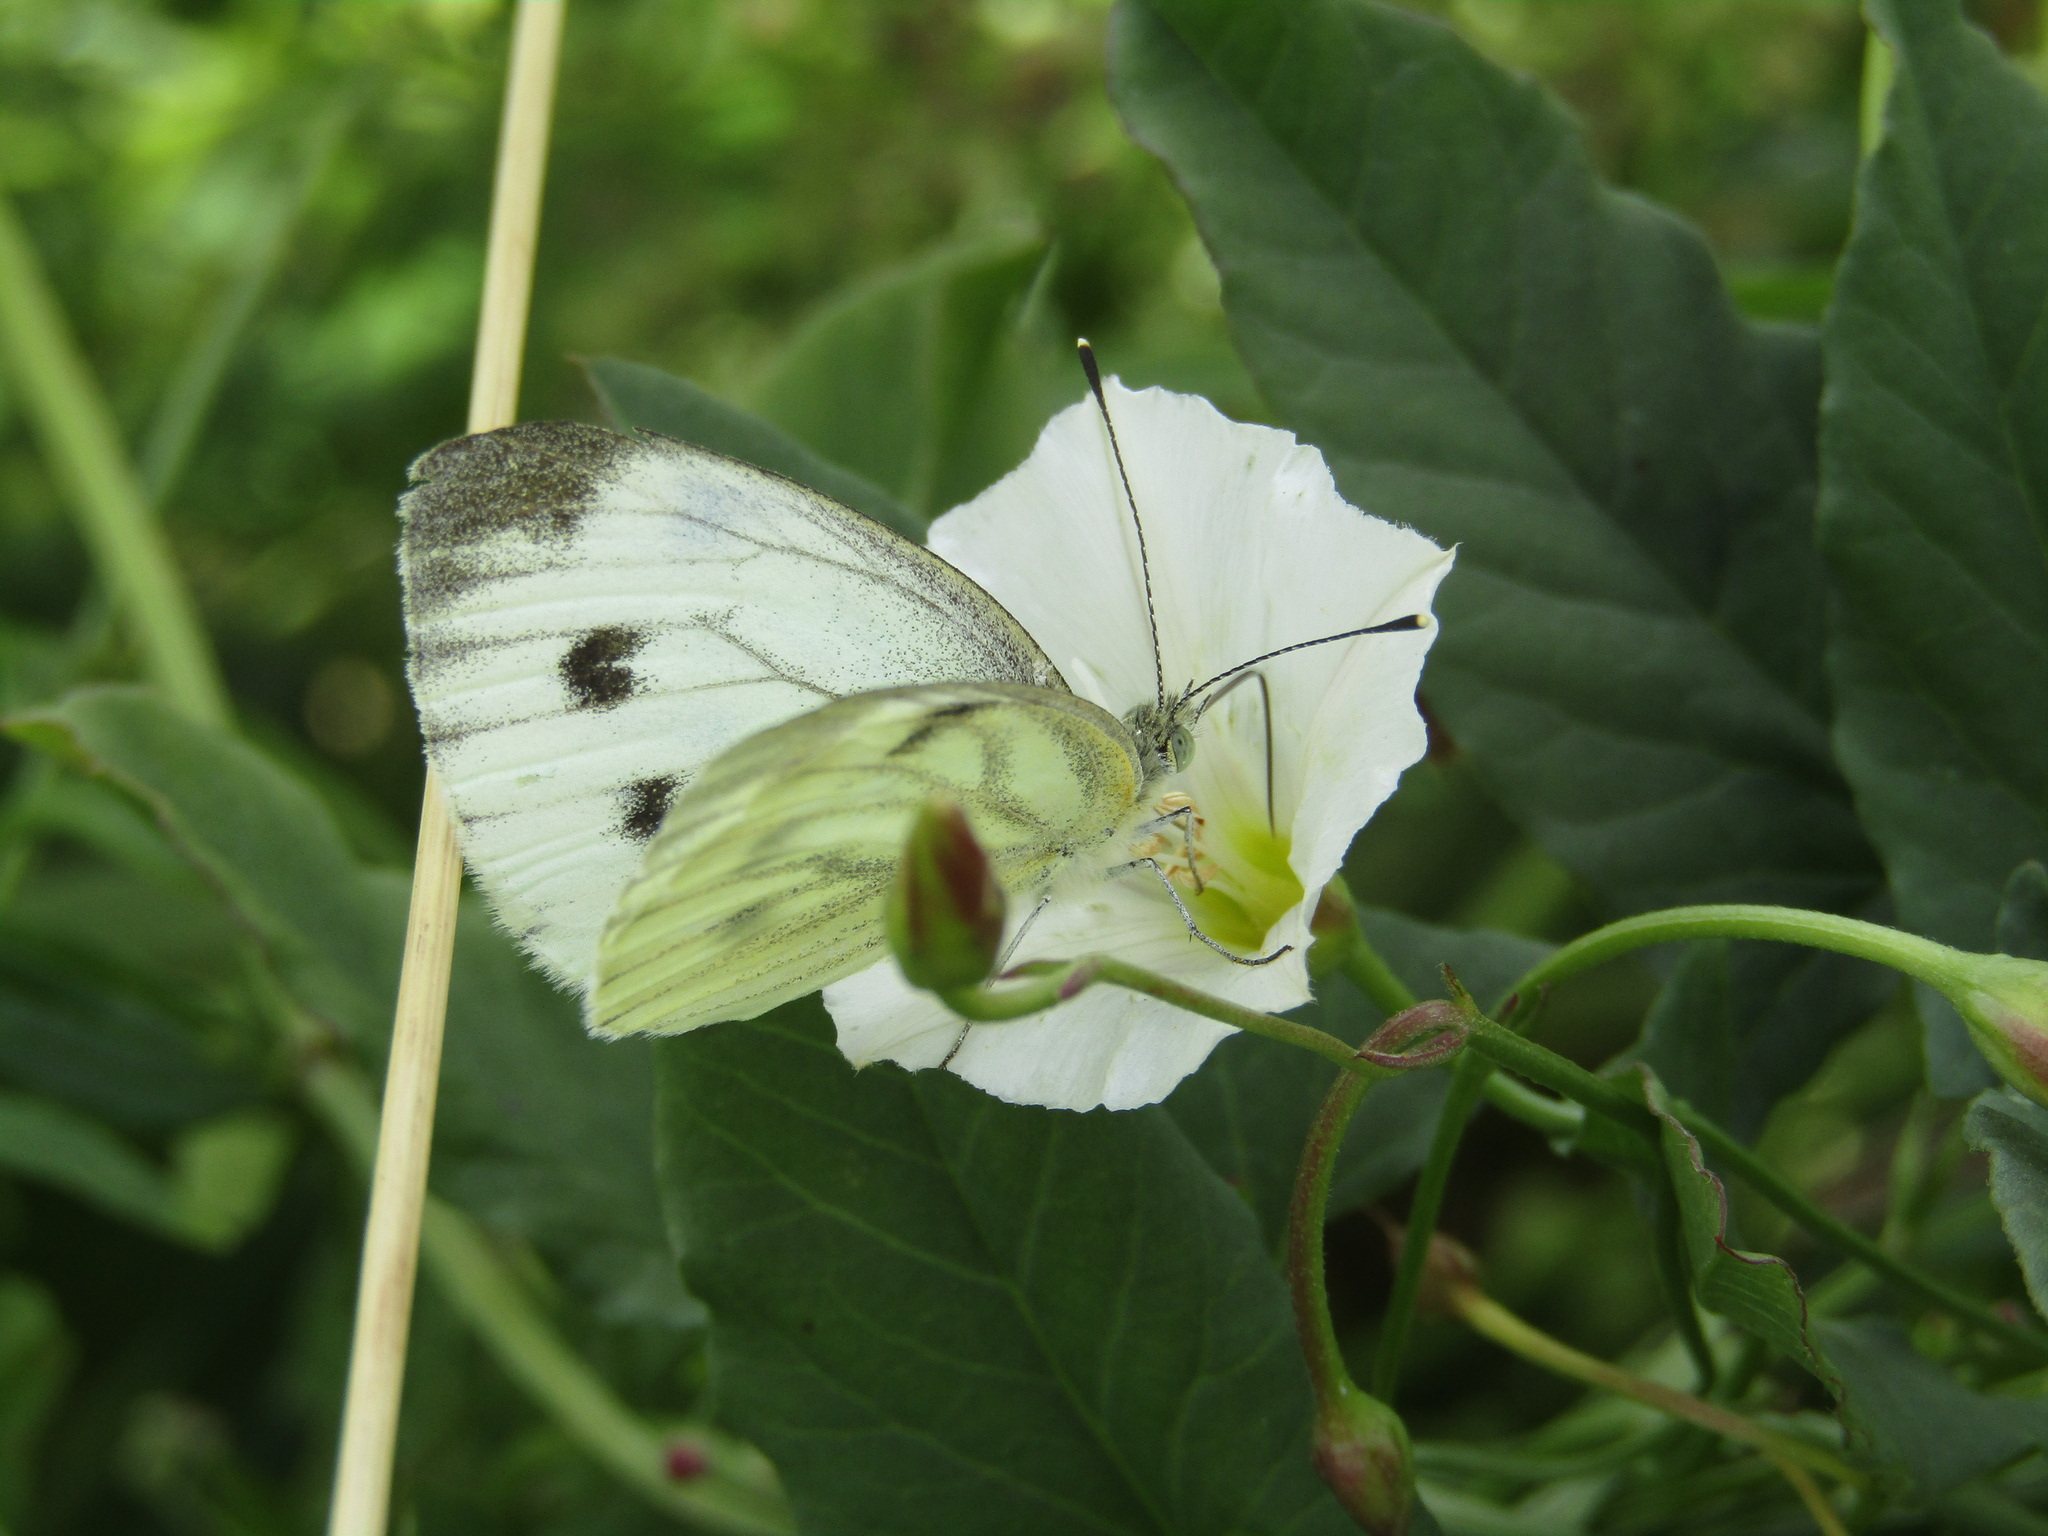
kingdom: Animalia
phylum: Arthropoda
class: Insecta
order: Lepidoptera
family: Pieridae
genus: Pieris
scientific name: Pieris napi
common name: Green-veined white
